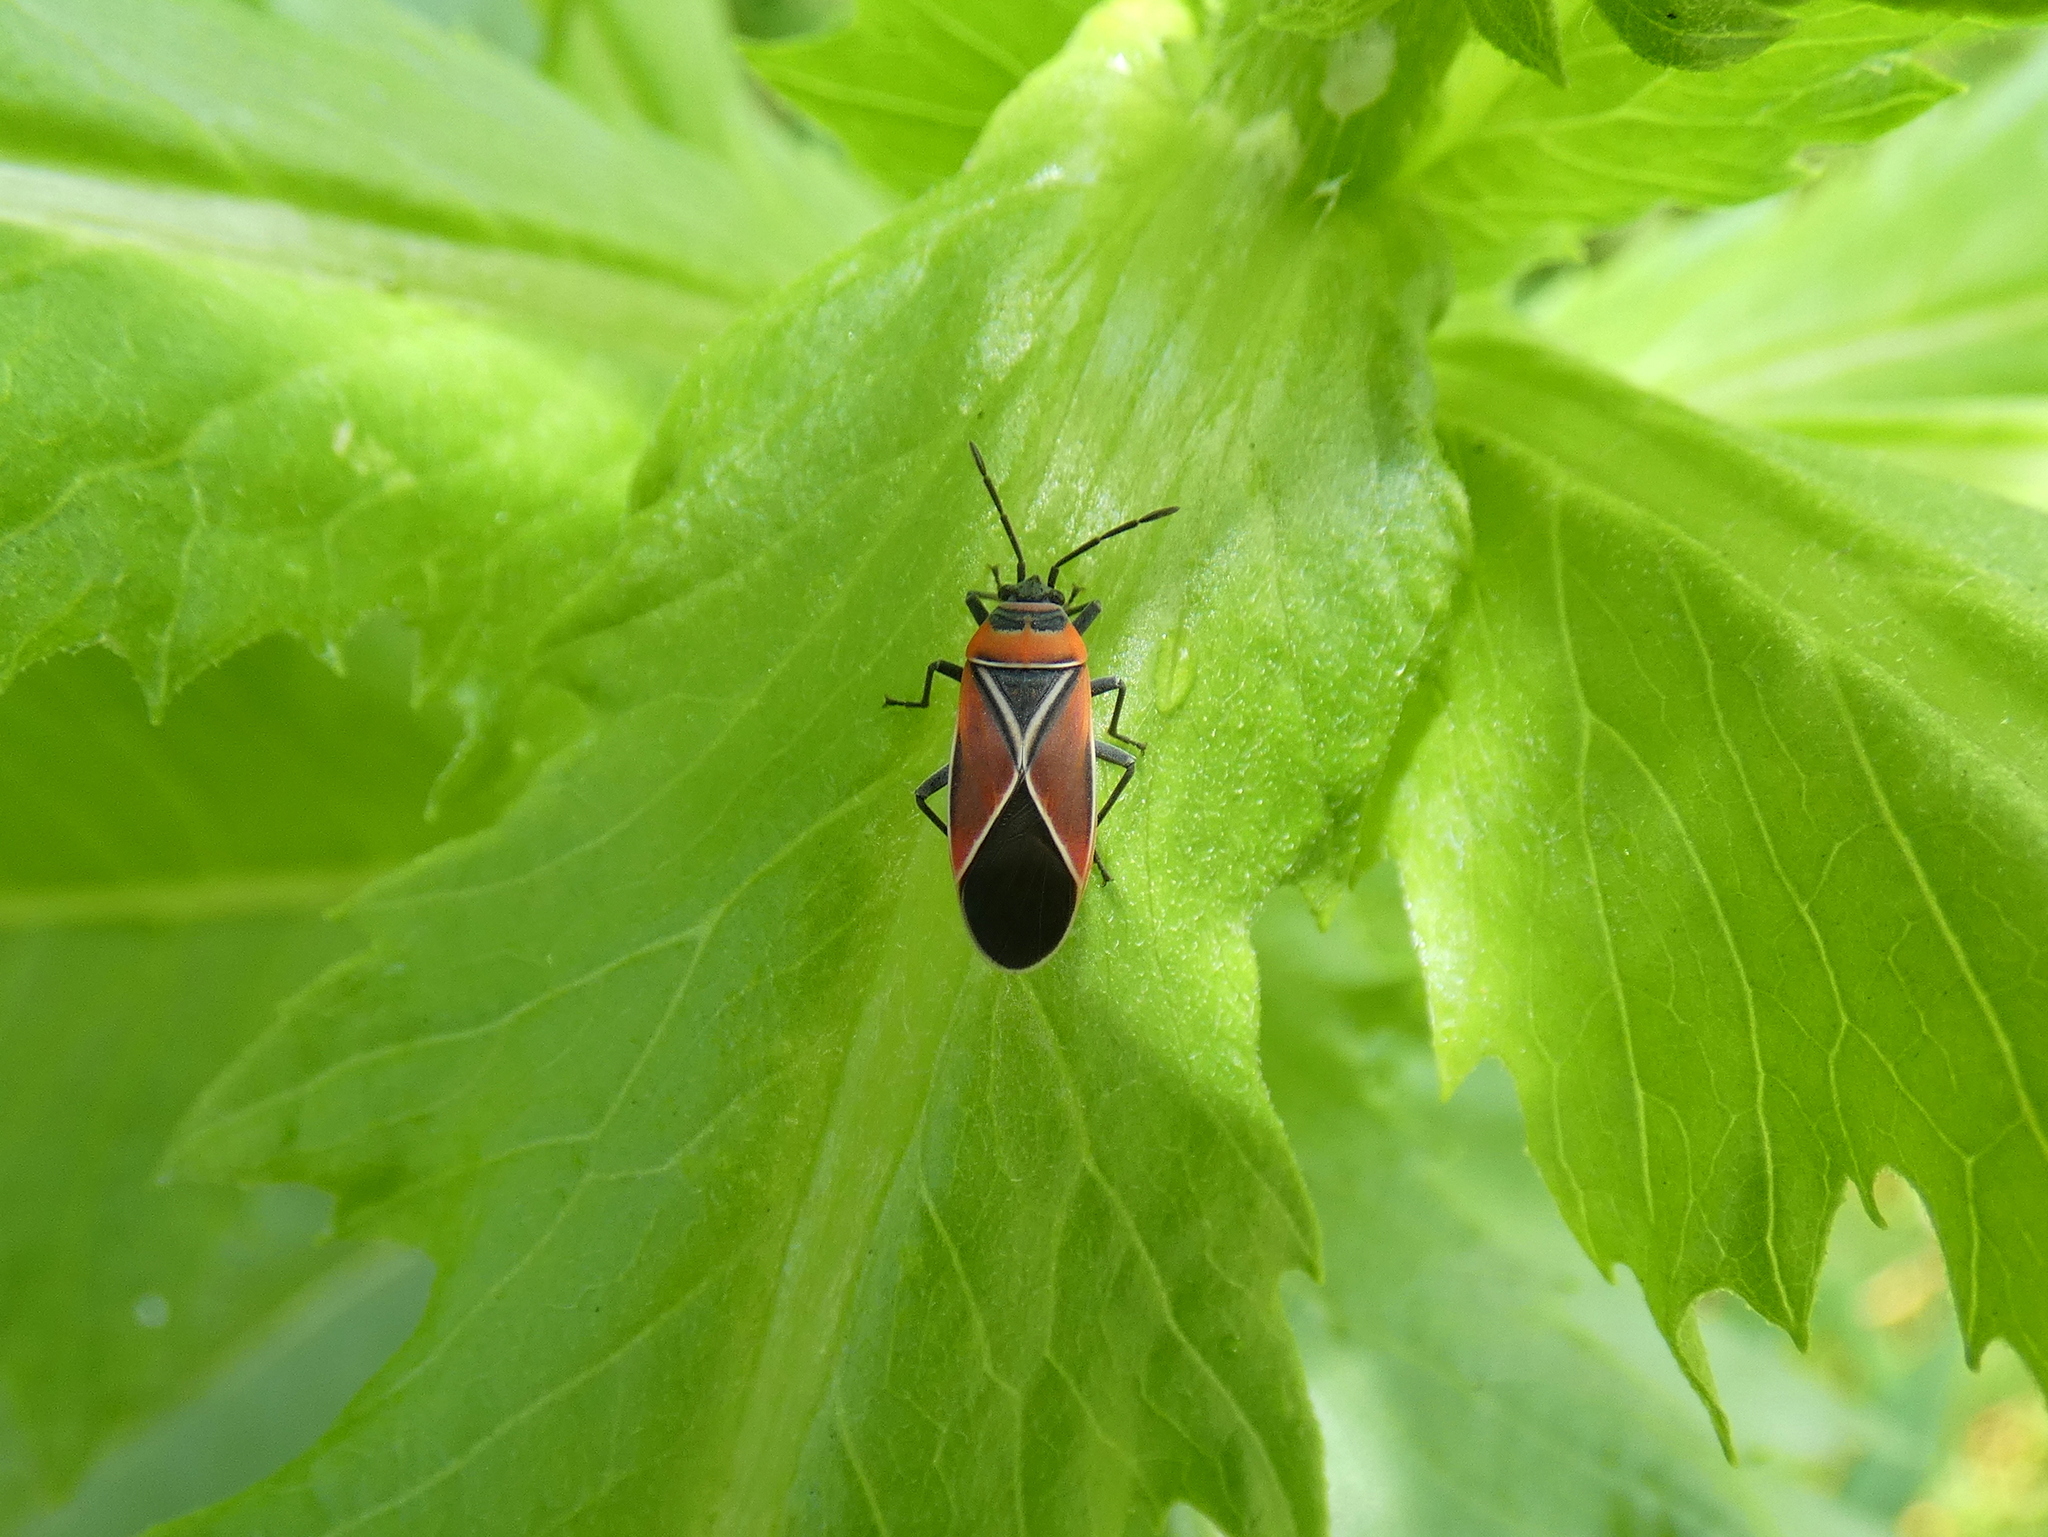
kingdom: Animalia
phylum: Arthropoda
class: Insecta
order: Hemiptera
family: Lygaeidae
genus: Neacoryphus
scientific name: Neacoryphus bicrucis
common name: Lygaeid bug
